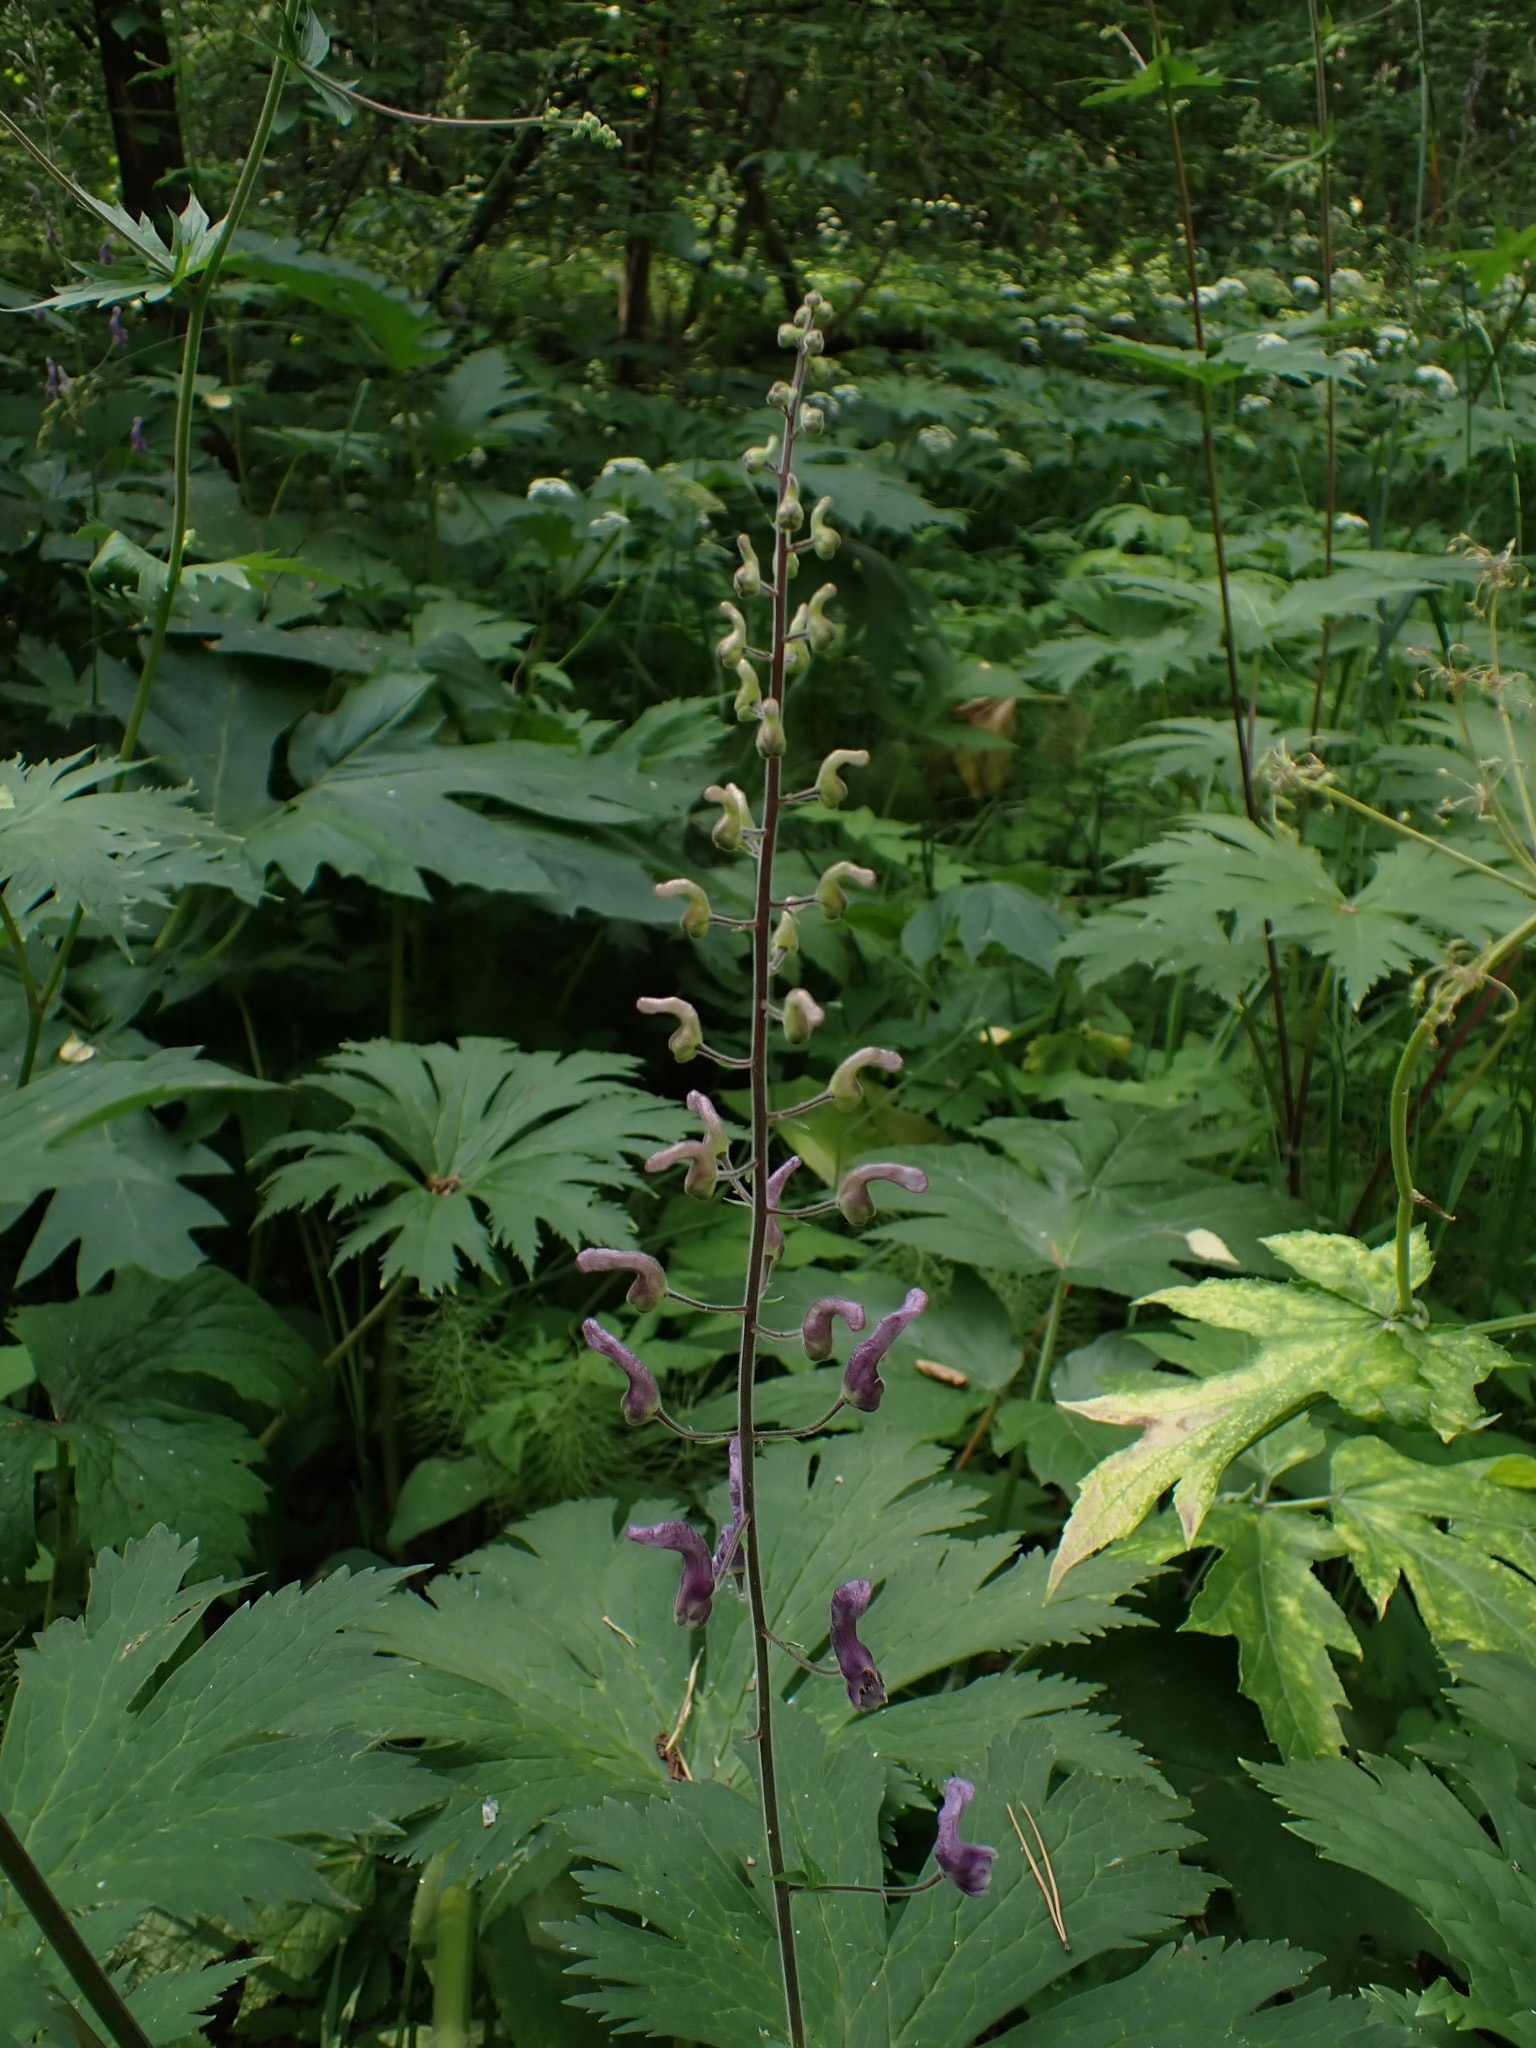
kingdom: Plantae
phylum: Tracheophyta
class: Magnoliopsida
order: Ranunculales
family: Ranunculaceae
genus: Aconitum
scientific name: Aconitum septentrionale
